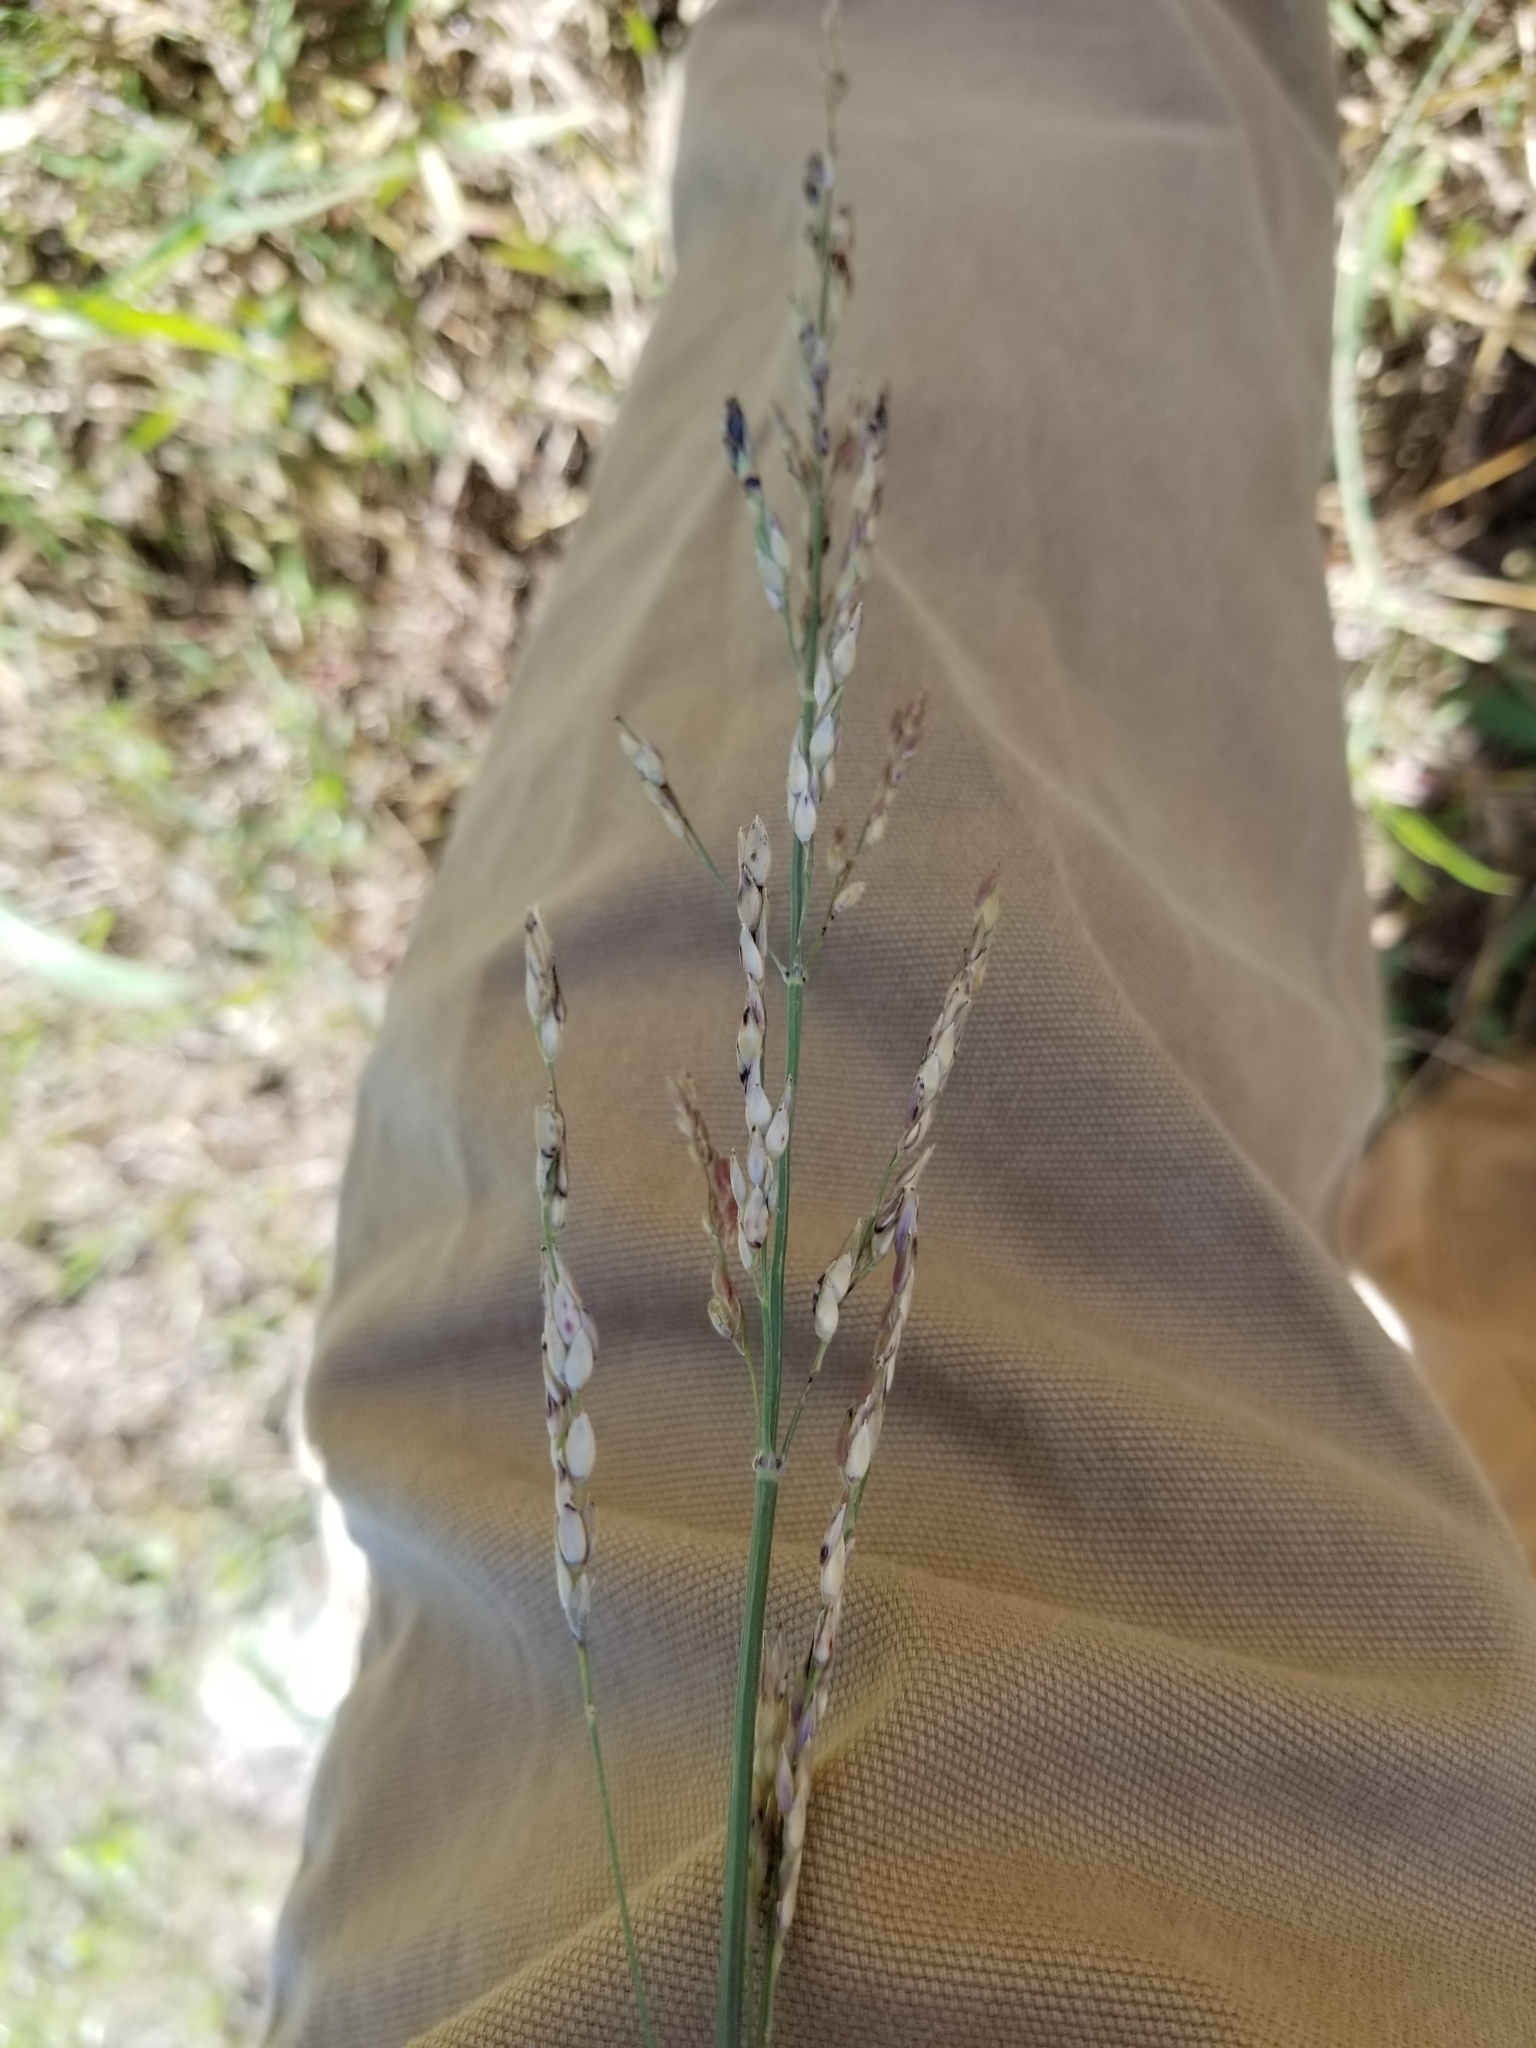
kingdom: Plantae
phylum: Tracheophyta
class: Liliopsida
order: Poales
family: Poaceae
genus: Sorghum
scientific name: Sorghum halepense
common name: Johnson-grass
